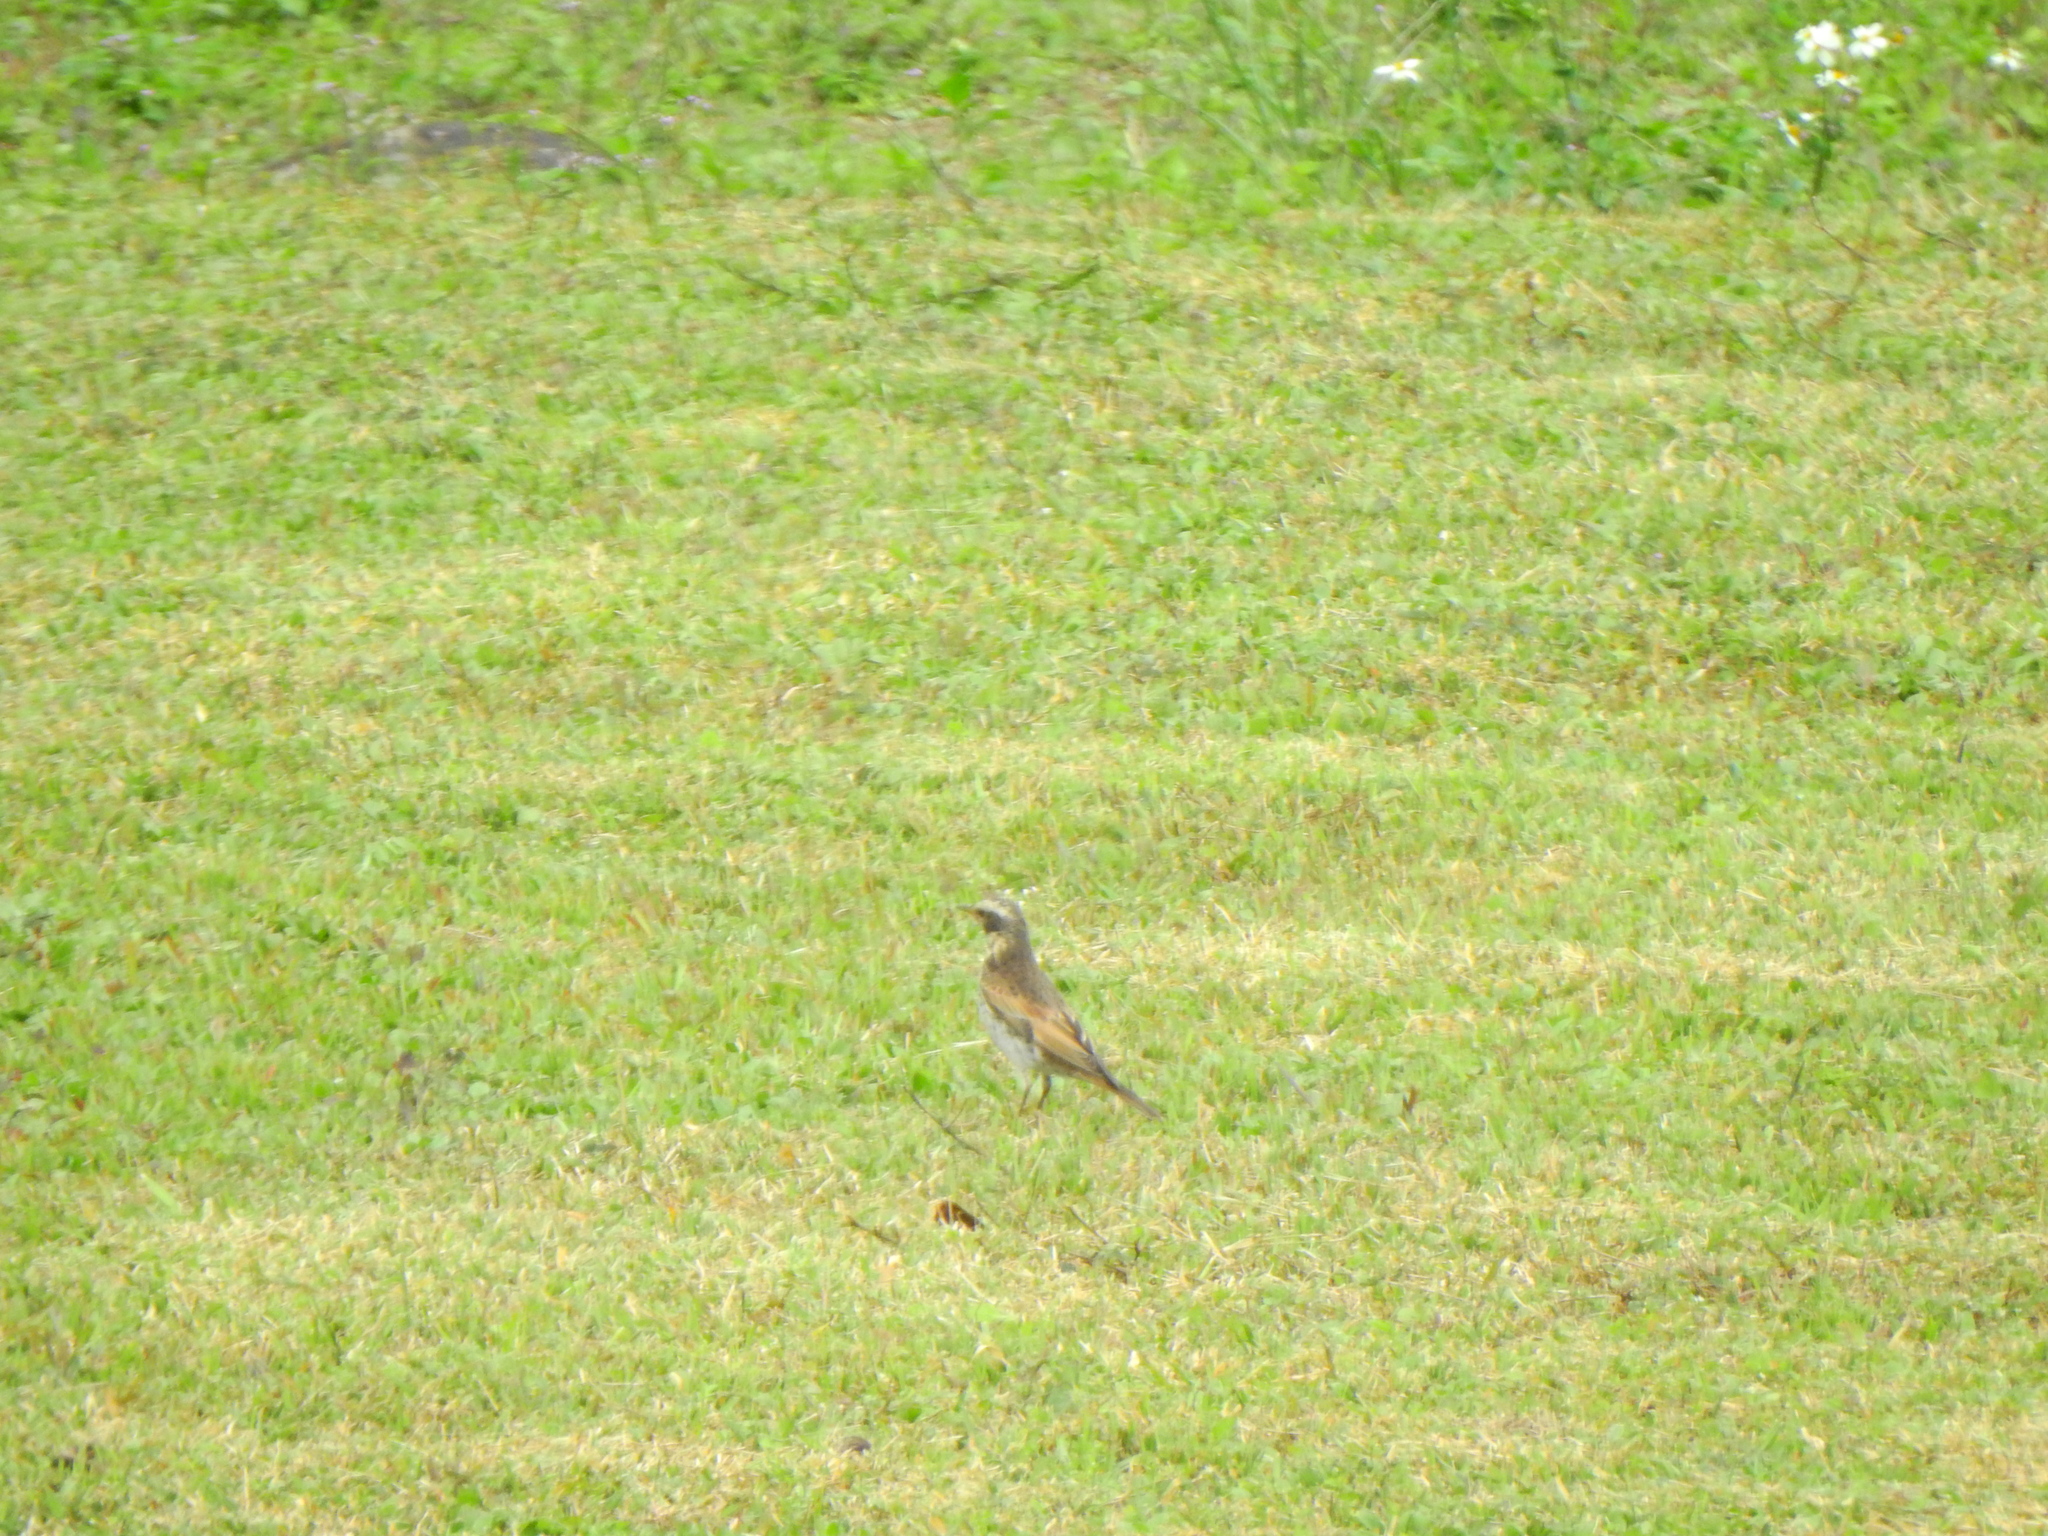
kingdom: Animalia
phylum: Chordata
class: Aves
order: Passeriformes
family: Turdidae
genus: Turdus
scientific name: Turdus eunomus
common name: Dusky thrush
